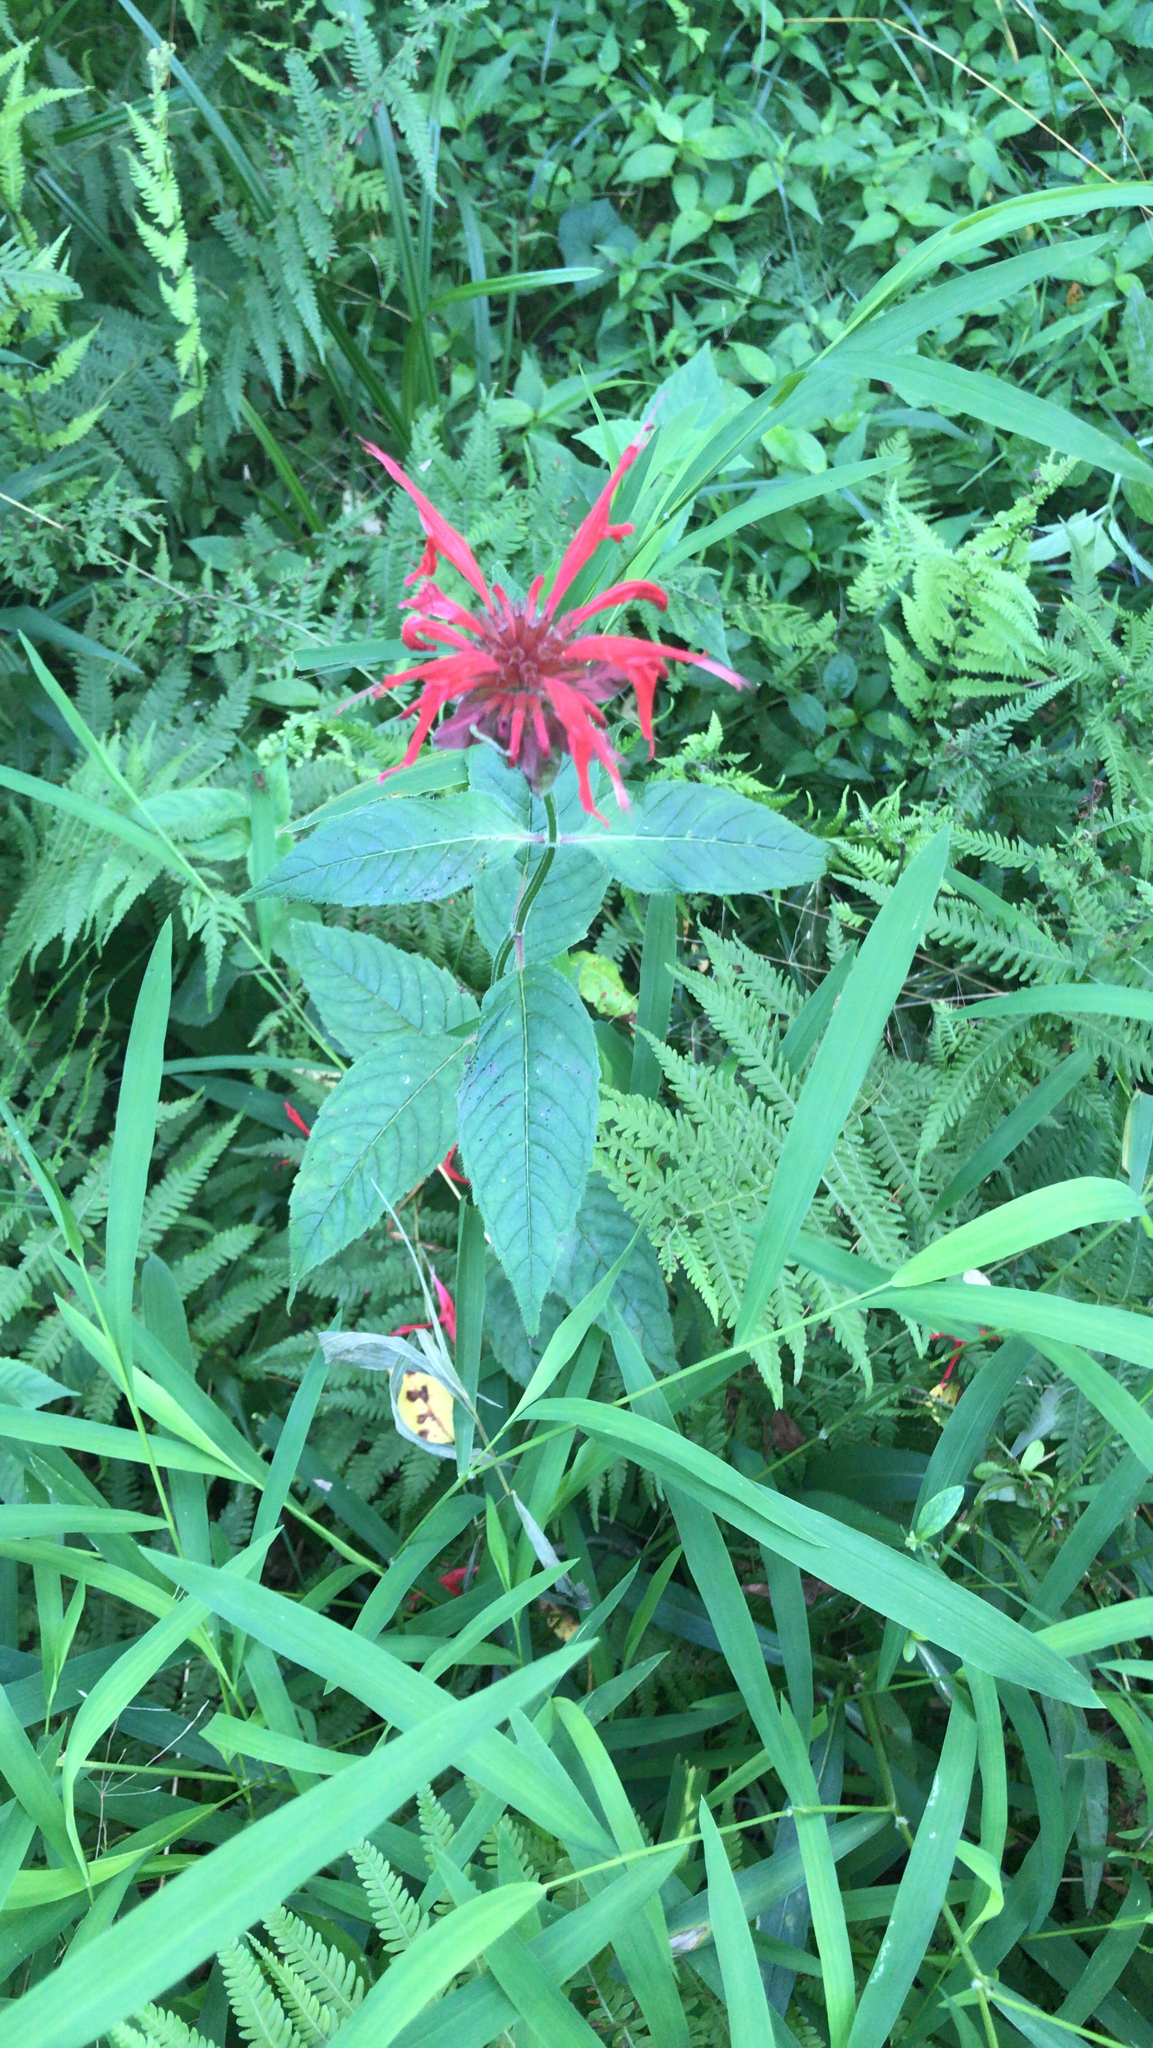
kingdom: Plantae
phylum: Tracheophyta
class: Magnoliopsida
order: Lamiales
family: Lamiaceae
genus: Monarda
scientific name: Monarda didyma
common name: Beebalm
